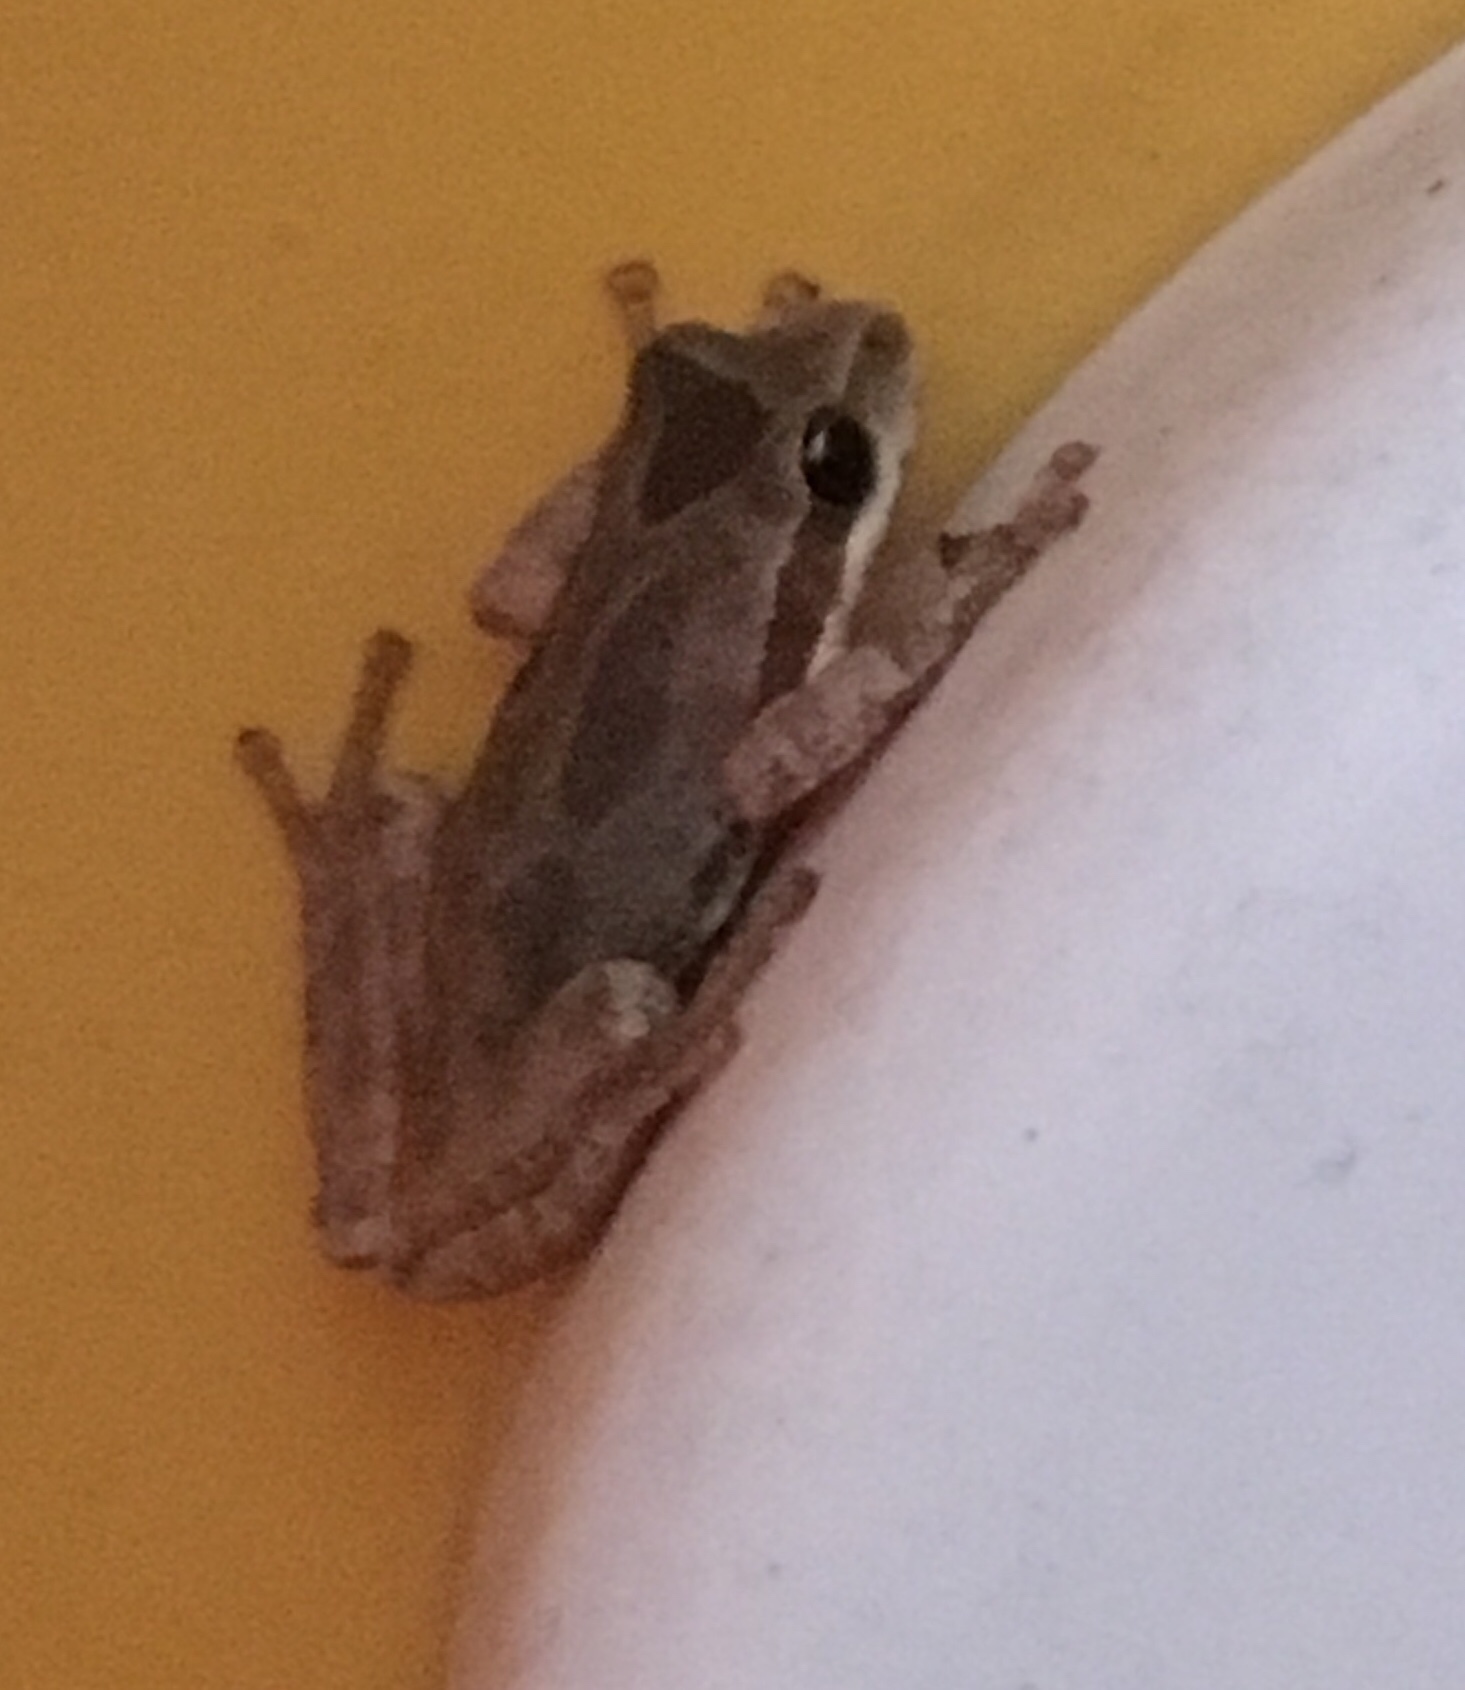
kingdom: Animalia
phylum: Chordata
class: Amphibia
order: Anura
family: Hylidae
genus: Pseudacris
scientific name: Pseudacris regilla
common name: Pacific chorus frog
